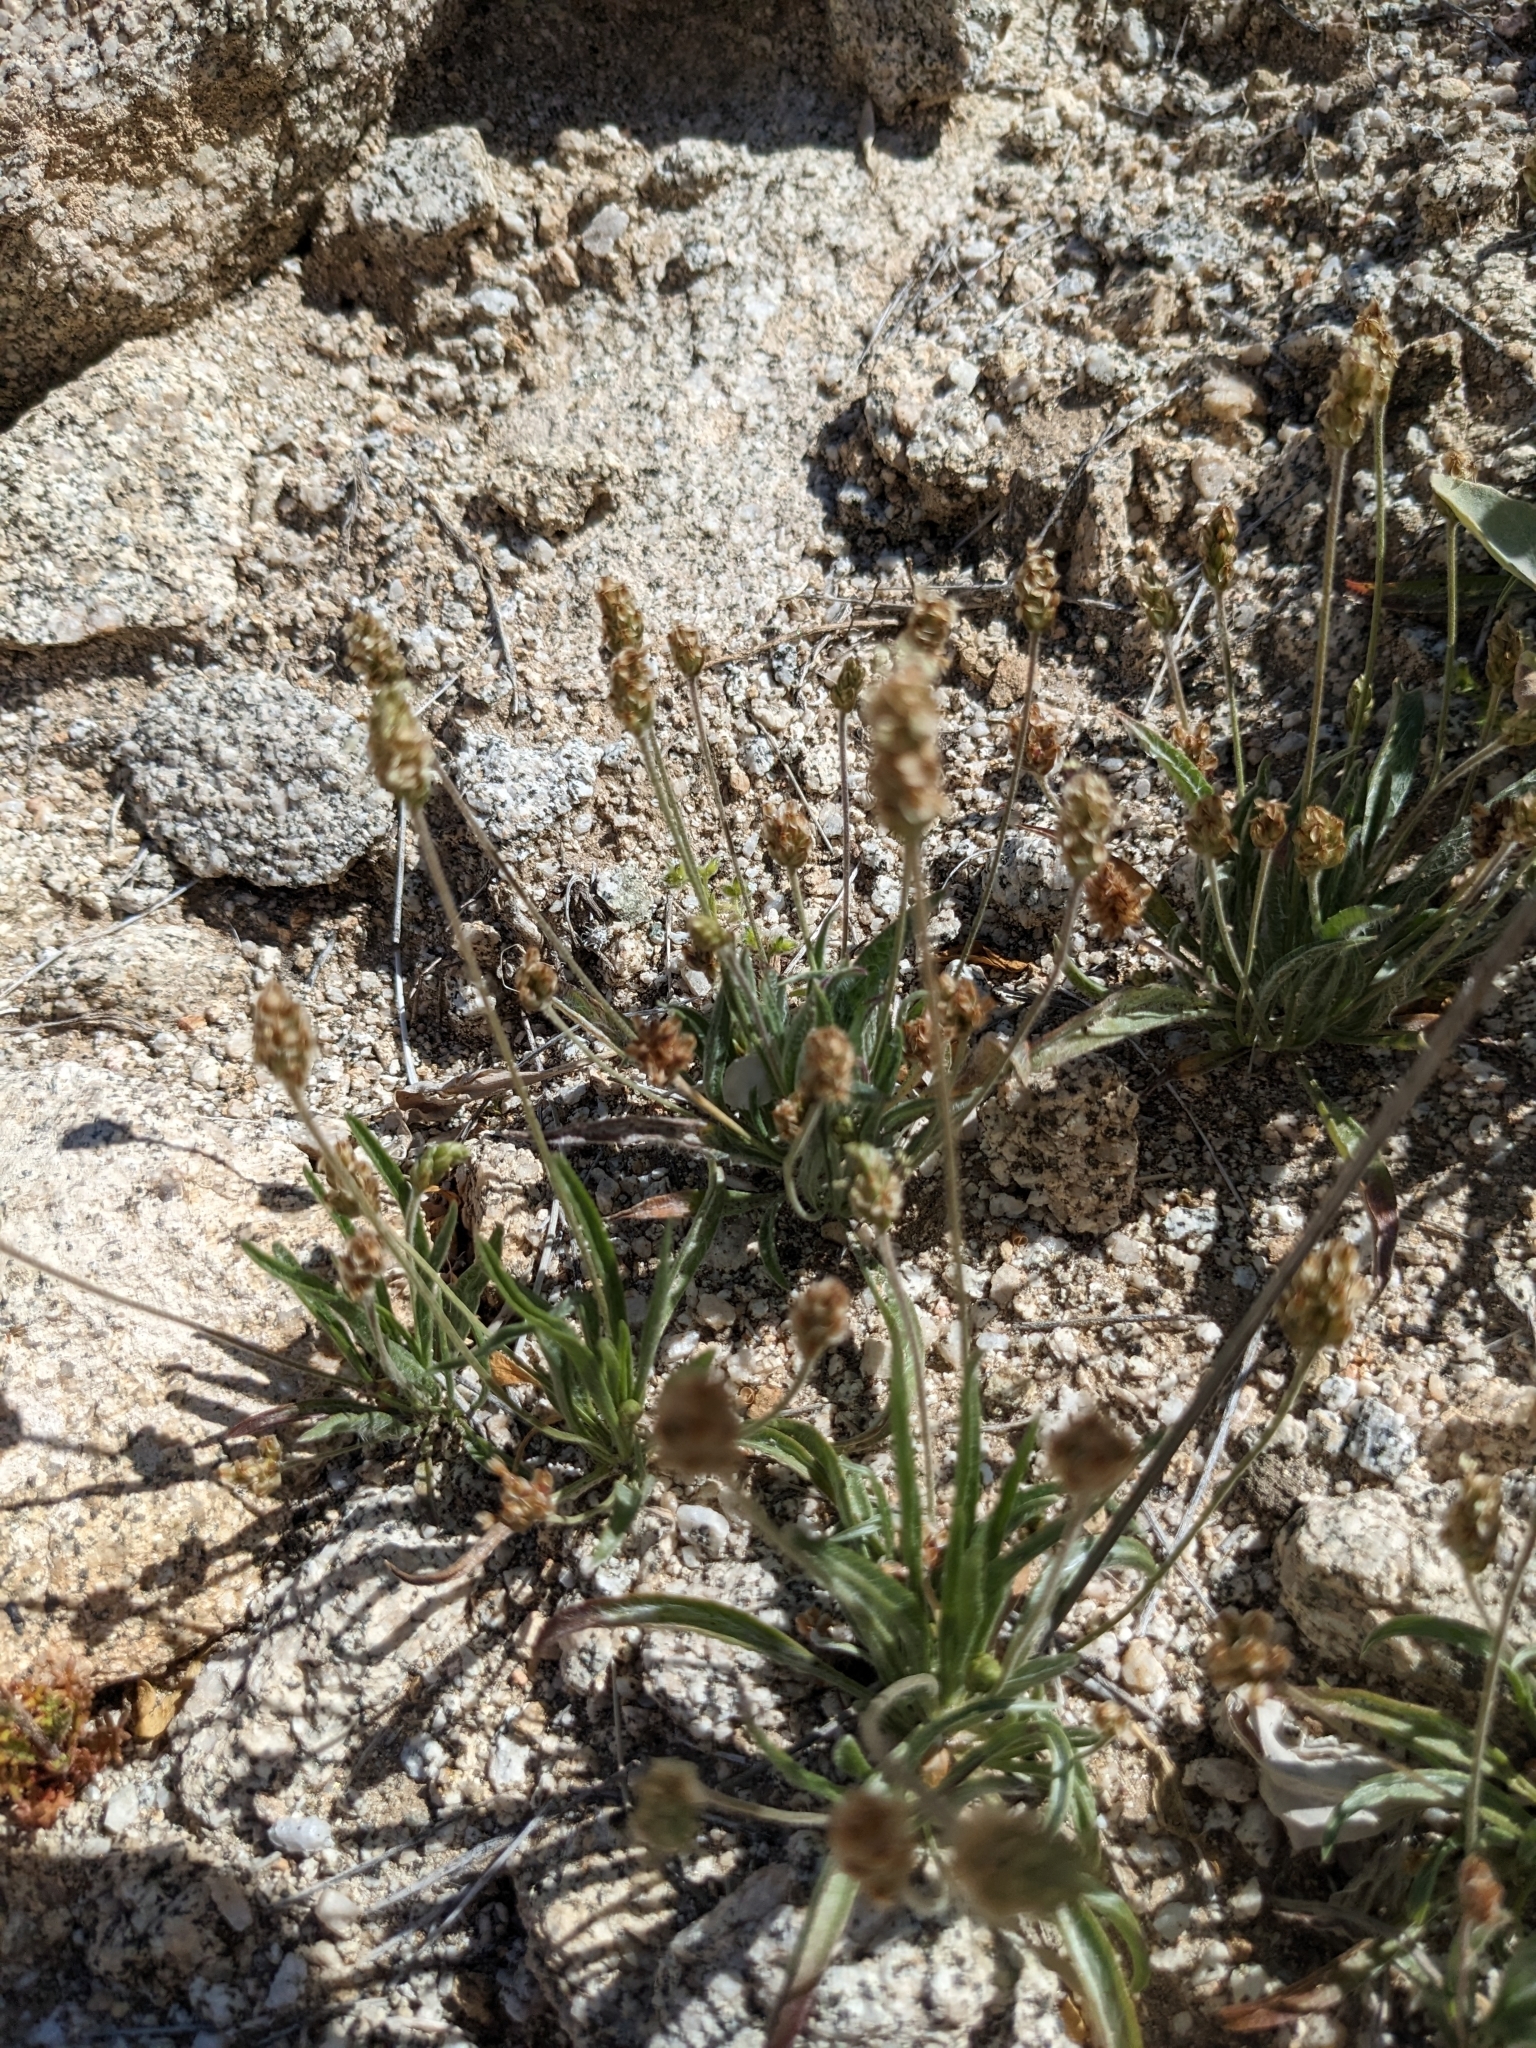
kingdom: Plantae
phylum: Tracheophyta
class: Magnoliopsida
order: Lamiales
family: Plantaginaceae
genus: Plantago
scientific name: Plantago ovata
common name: Blond plantain
